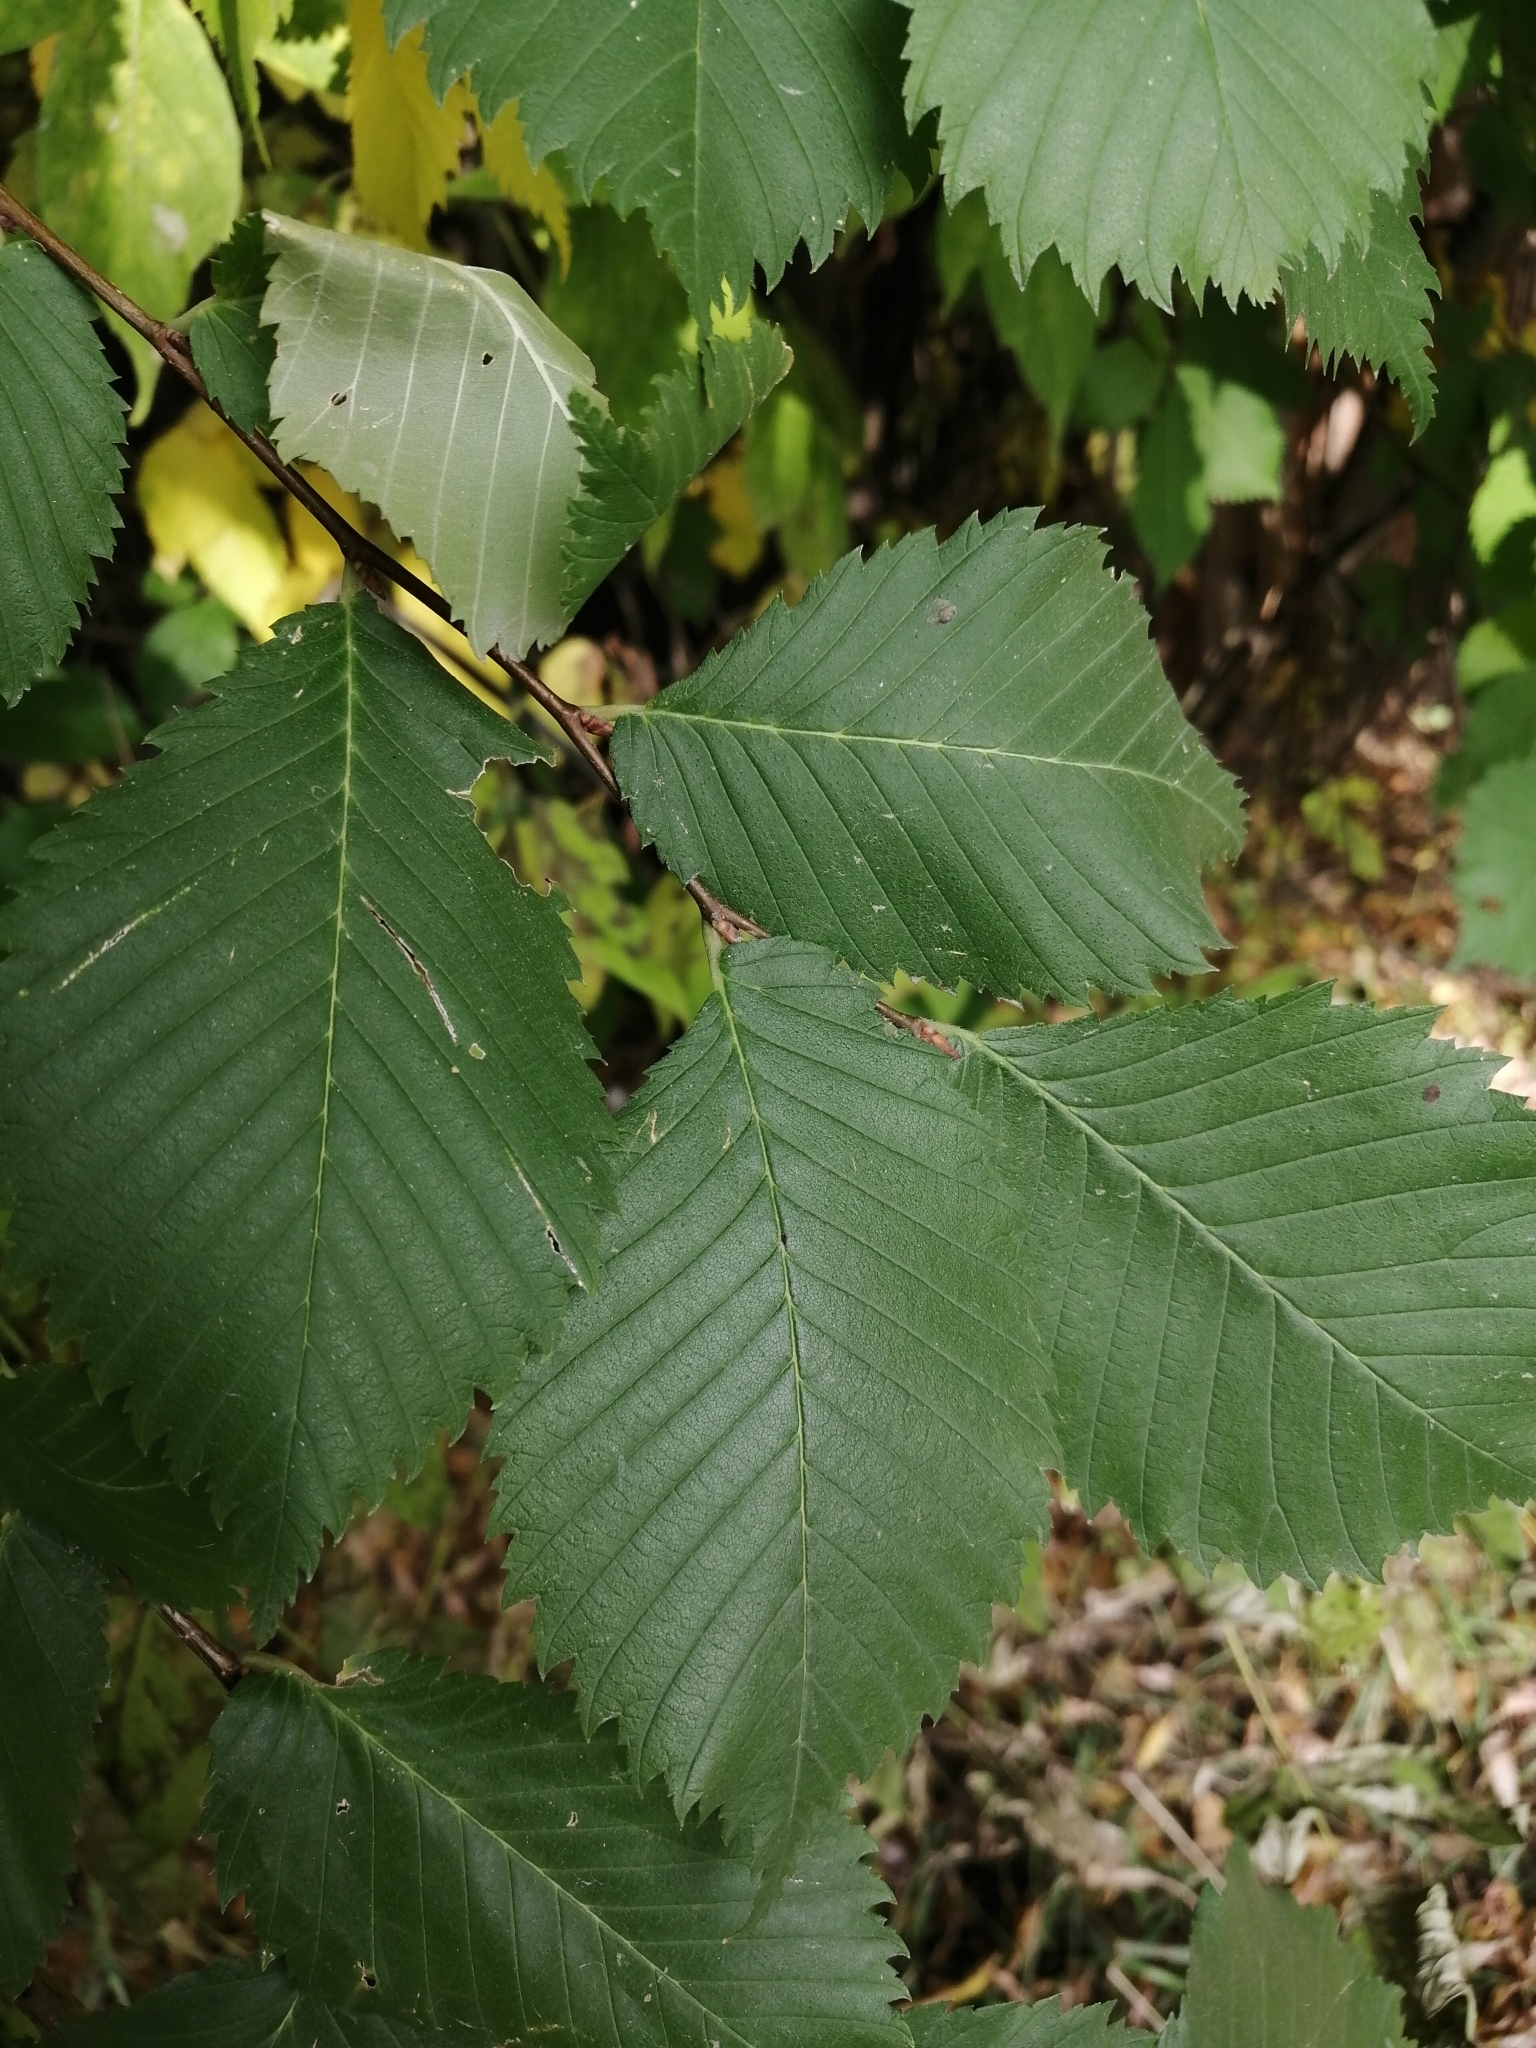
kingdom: Plantae
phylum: Tracheophyta
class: Magnoliopsida
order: Rosales
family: Ulmaceae
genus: Ulmus
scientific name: Ulmus laevis
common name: European white-elm
